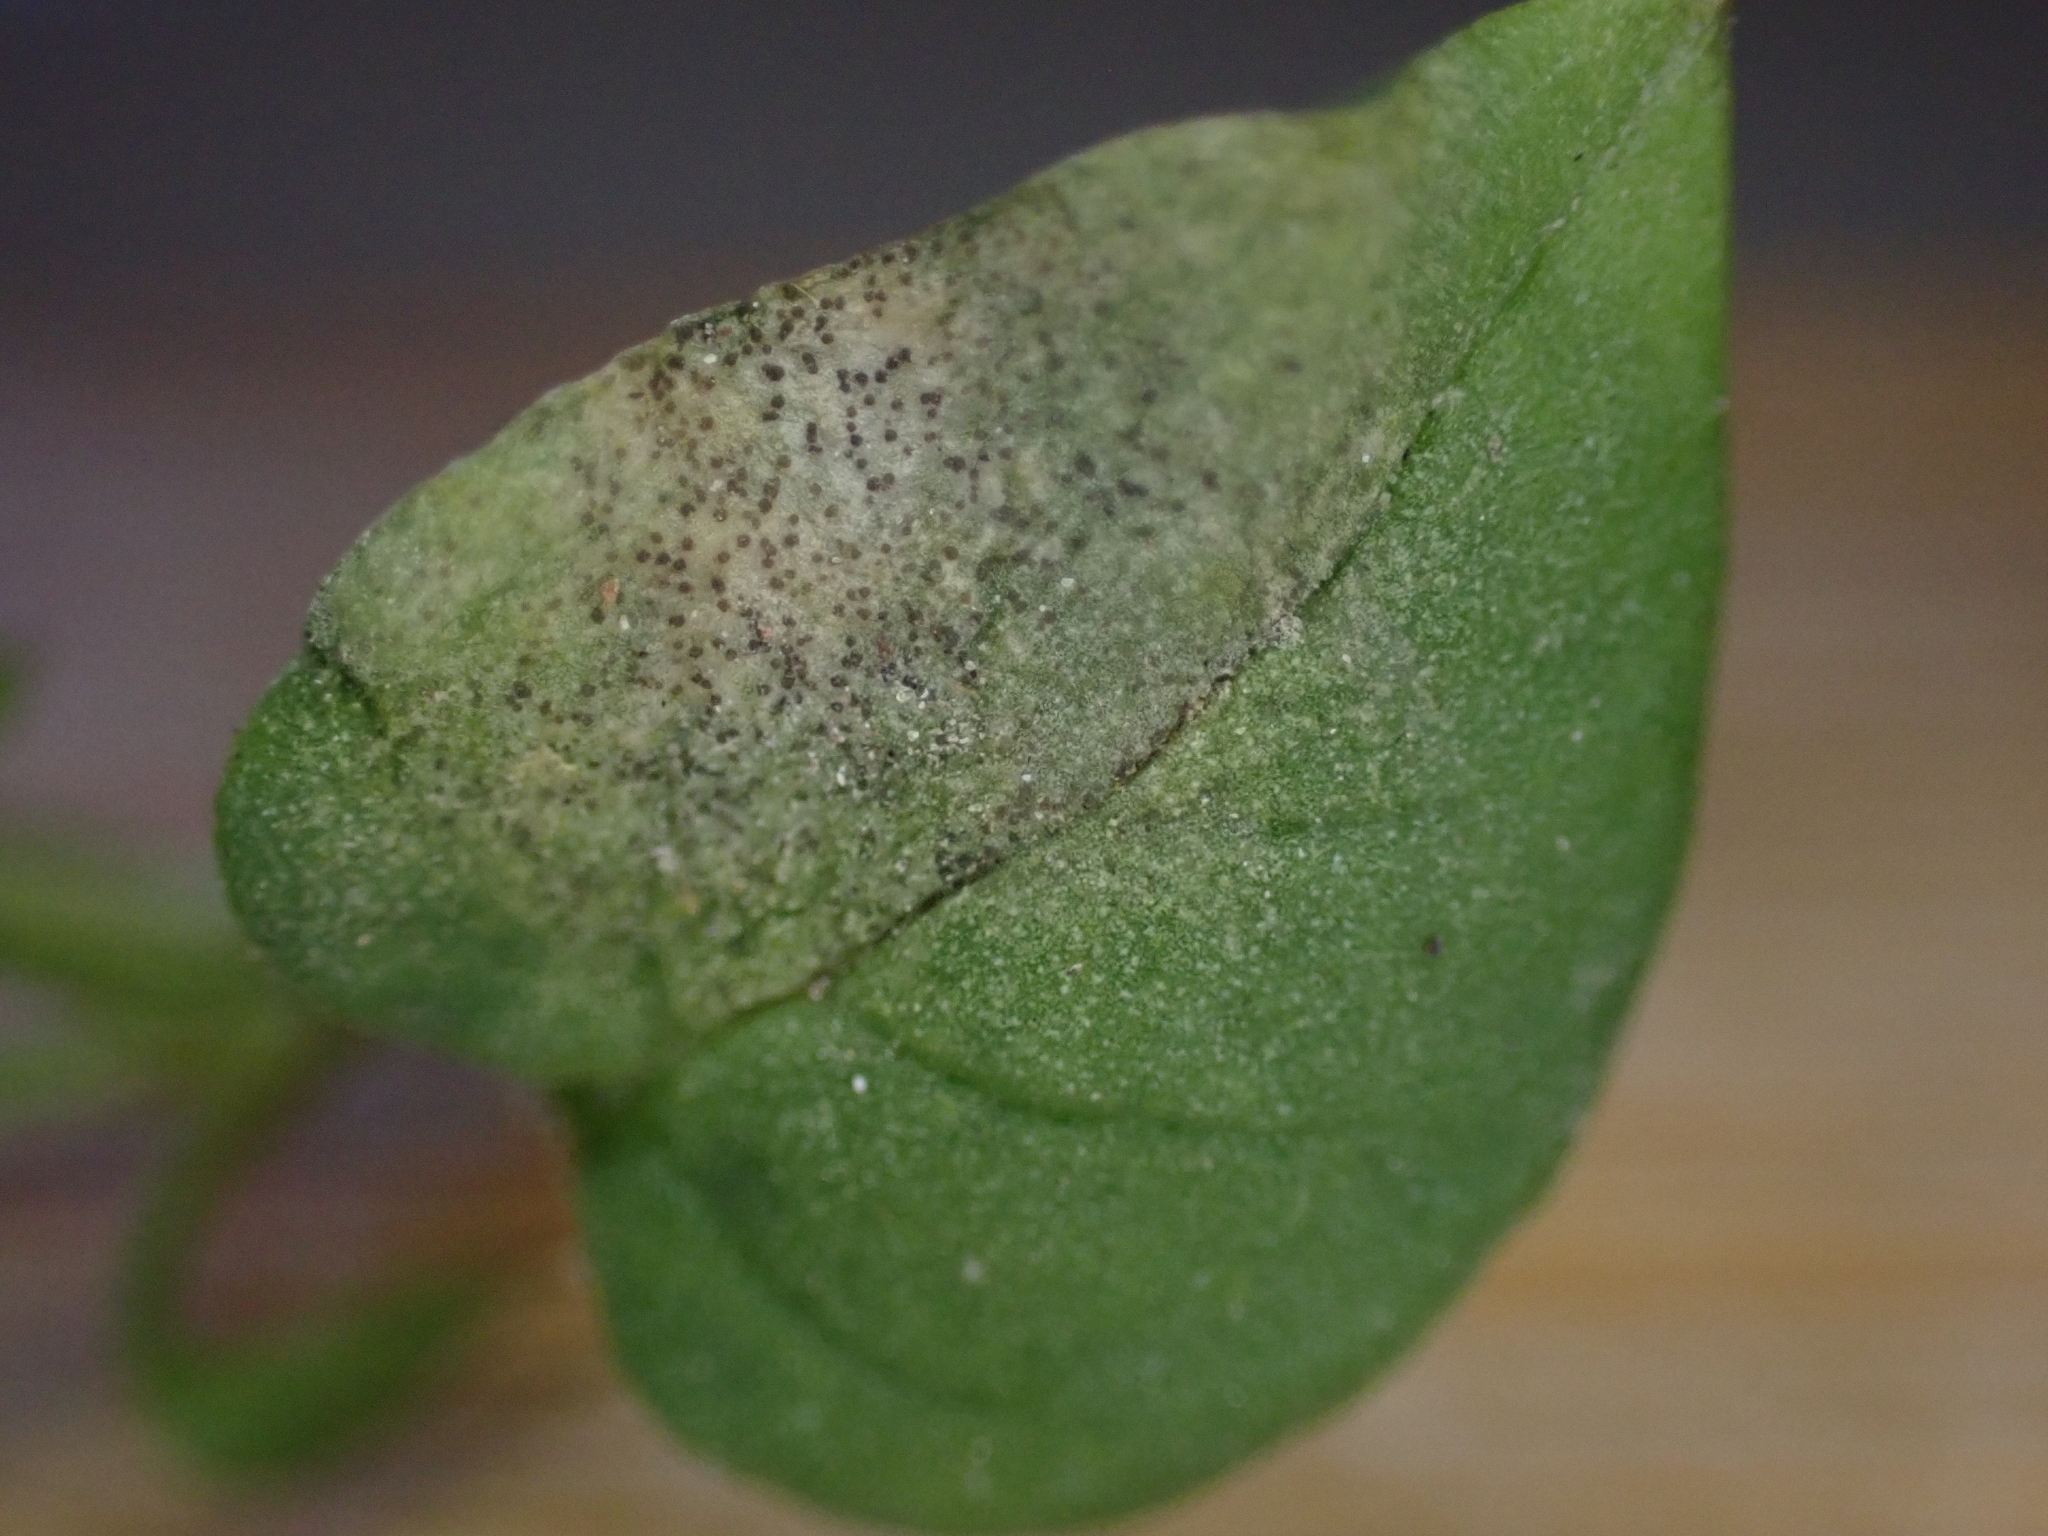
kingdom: Fungi
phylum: Ascomycota
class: Dothideomycetes
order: Mycosphaerellales
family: Mycosphaerellaceae
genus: Septoria
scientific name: Septoria stellariae
